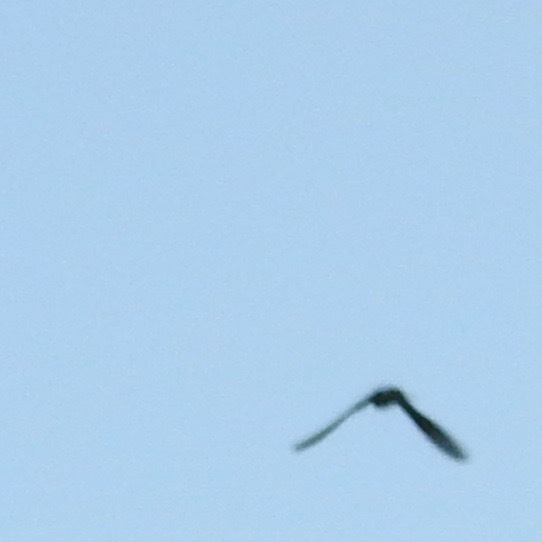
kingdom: Animalia
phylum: Chordata
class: Aves
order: Apodiformes
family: Apodidae
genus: Chaetura
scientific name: Chaetura vauxi
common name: Vaux's swift
